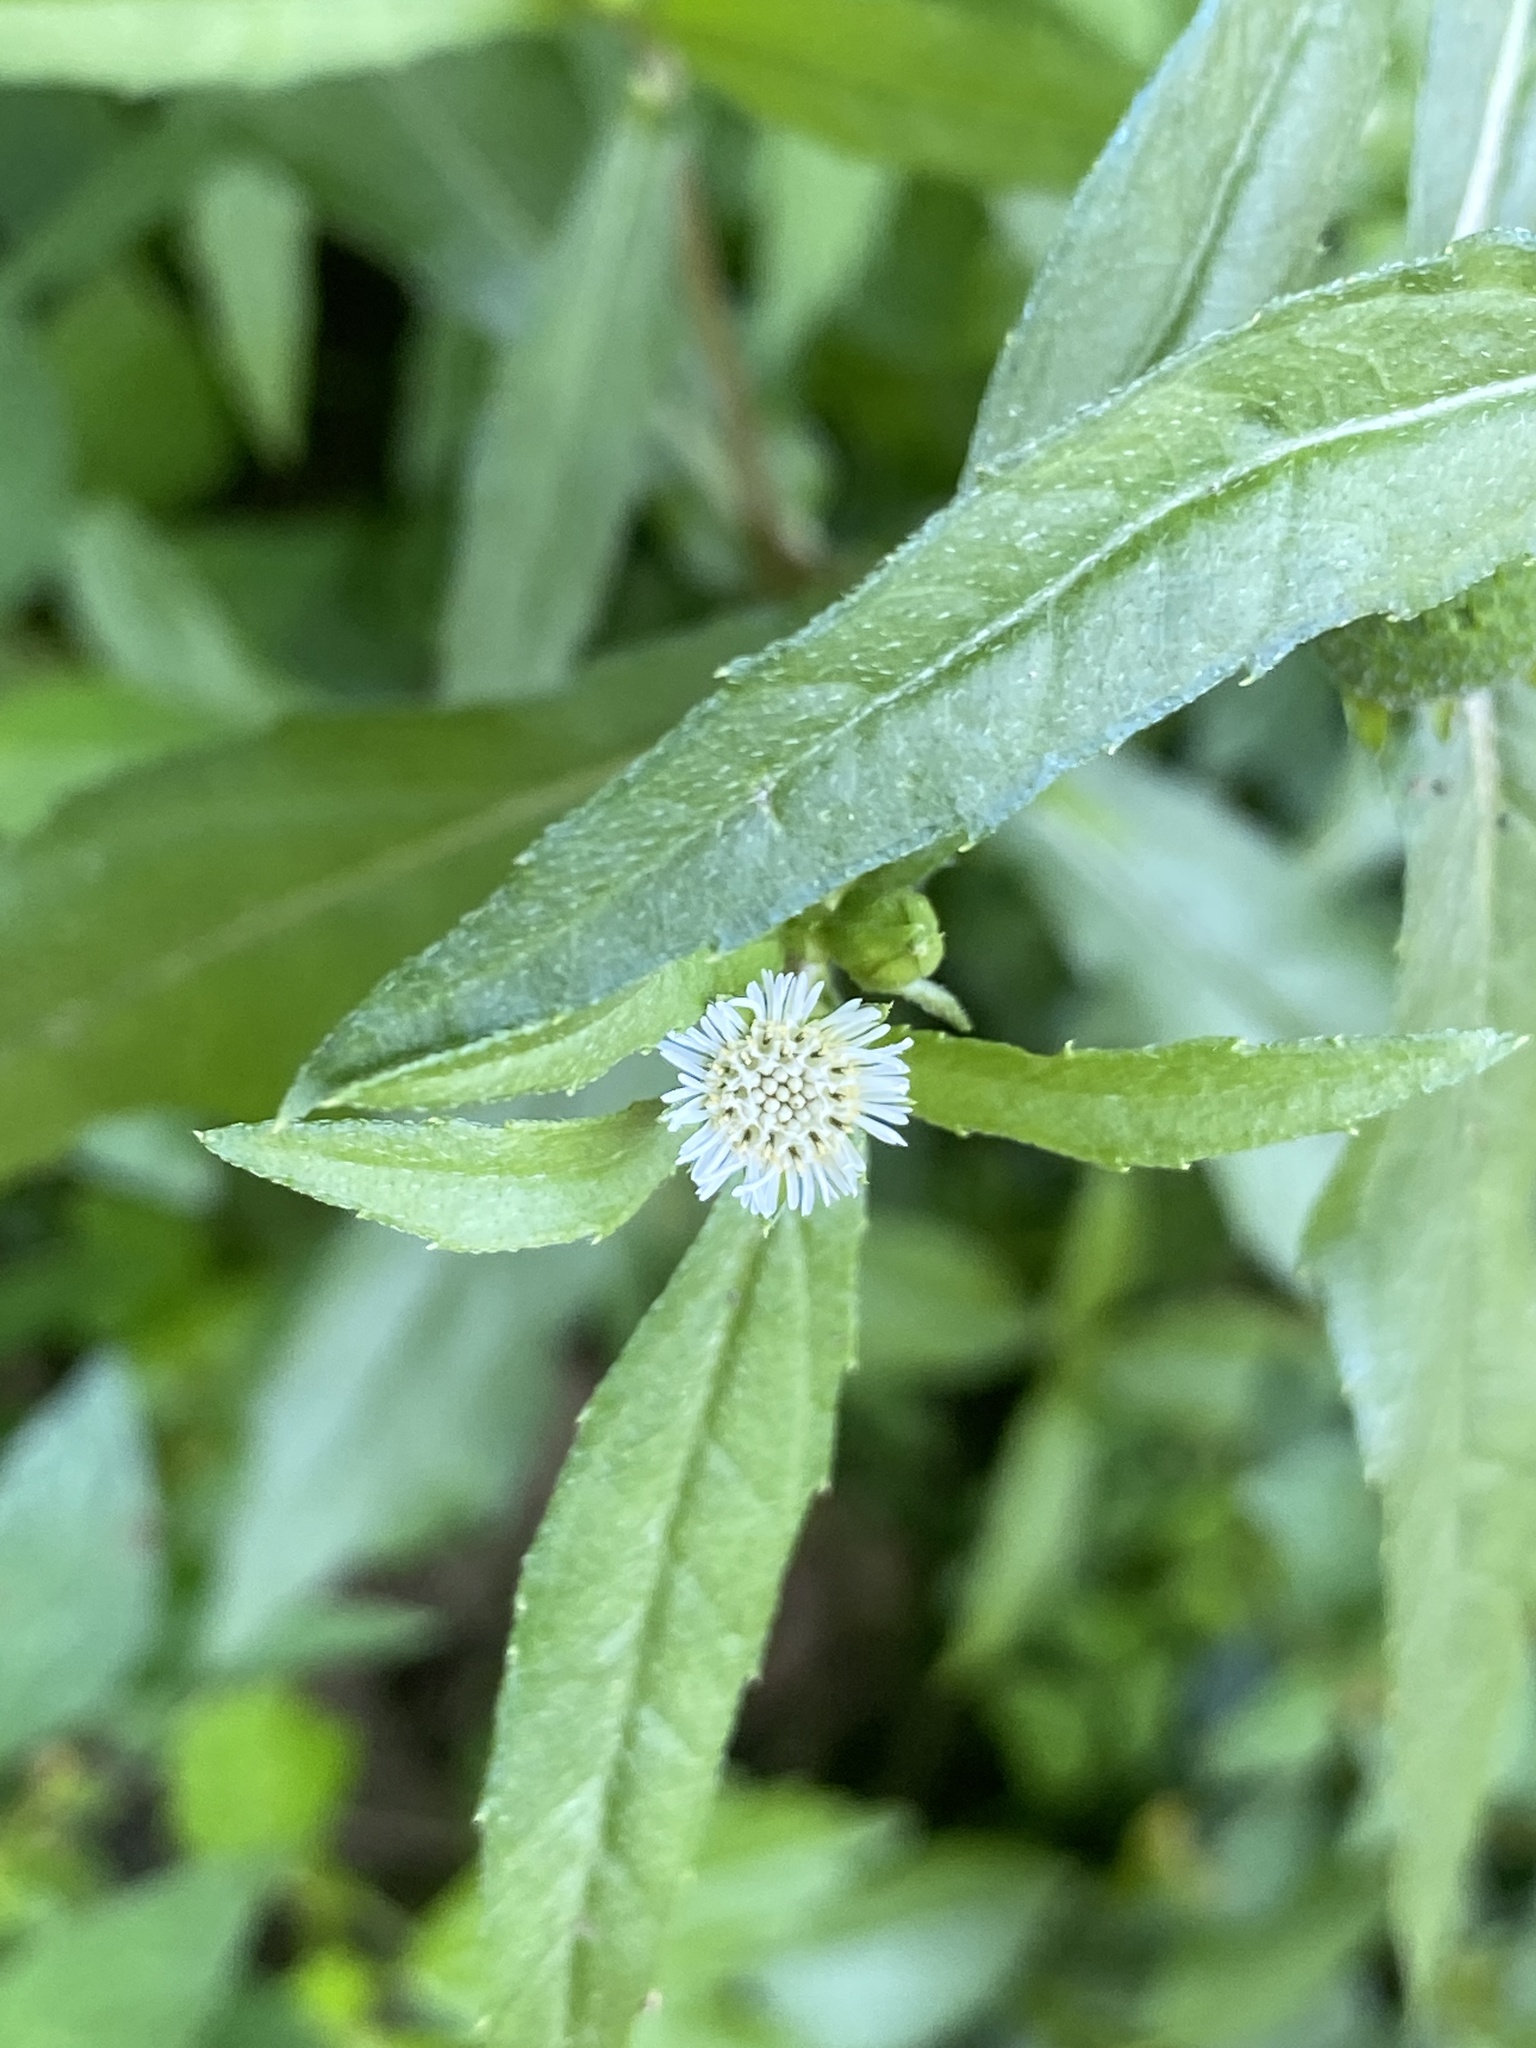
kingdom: Plantae
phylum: Tracheophyta
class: Magnoliopsida
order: Asterales
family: Asteraceae
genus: Eclipta
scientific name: Eclipta prostrata
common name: False daisy
